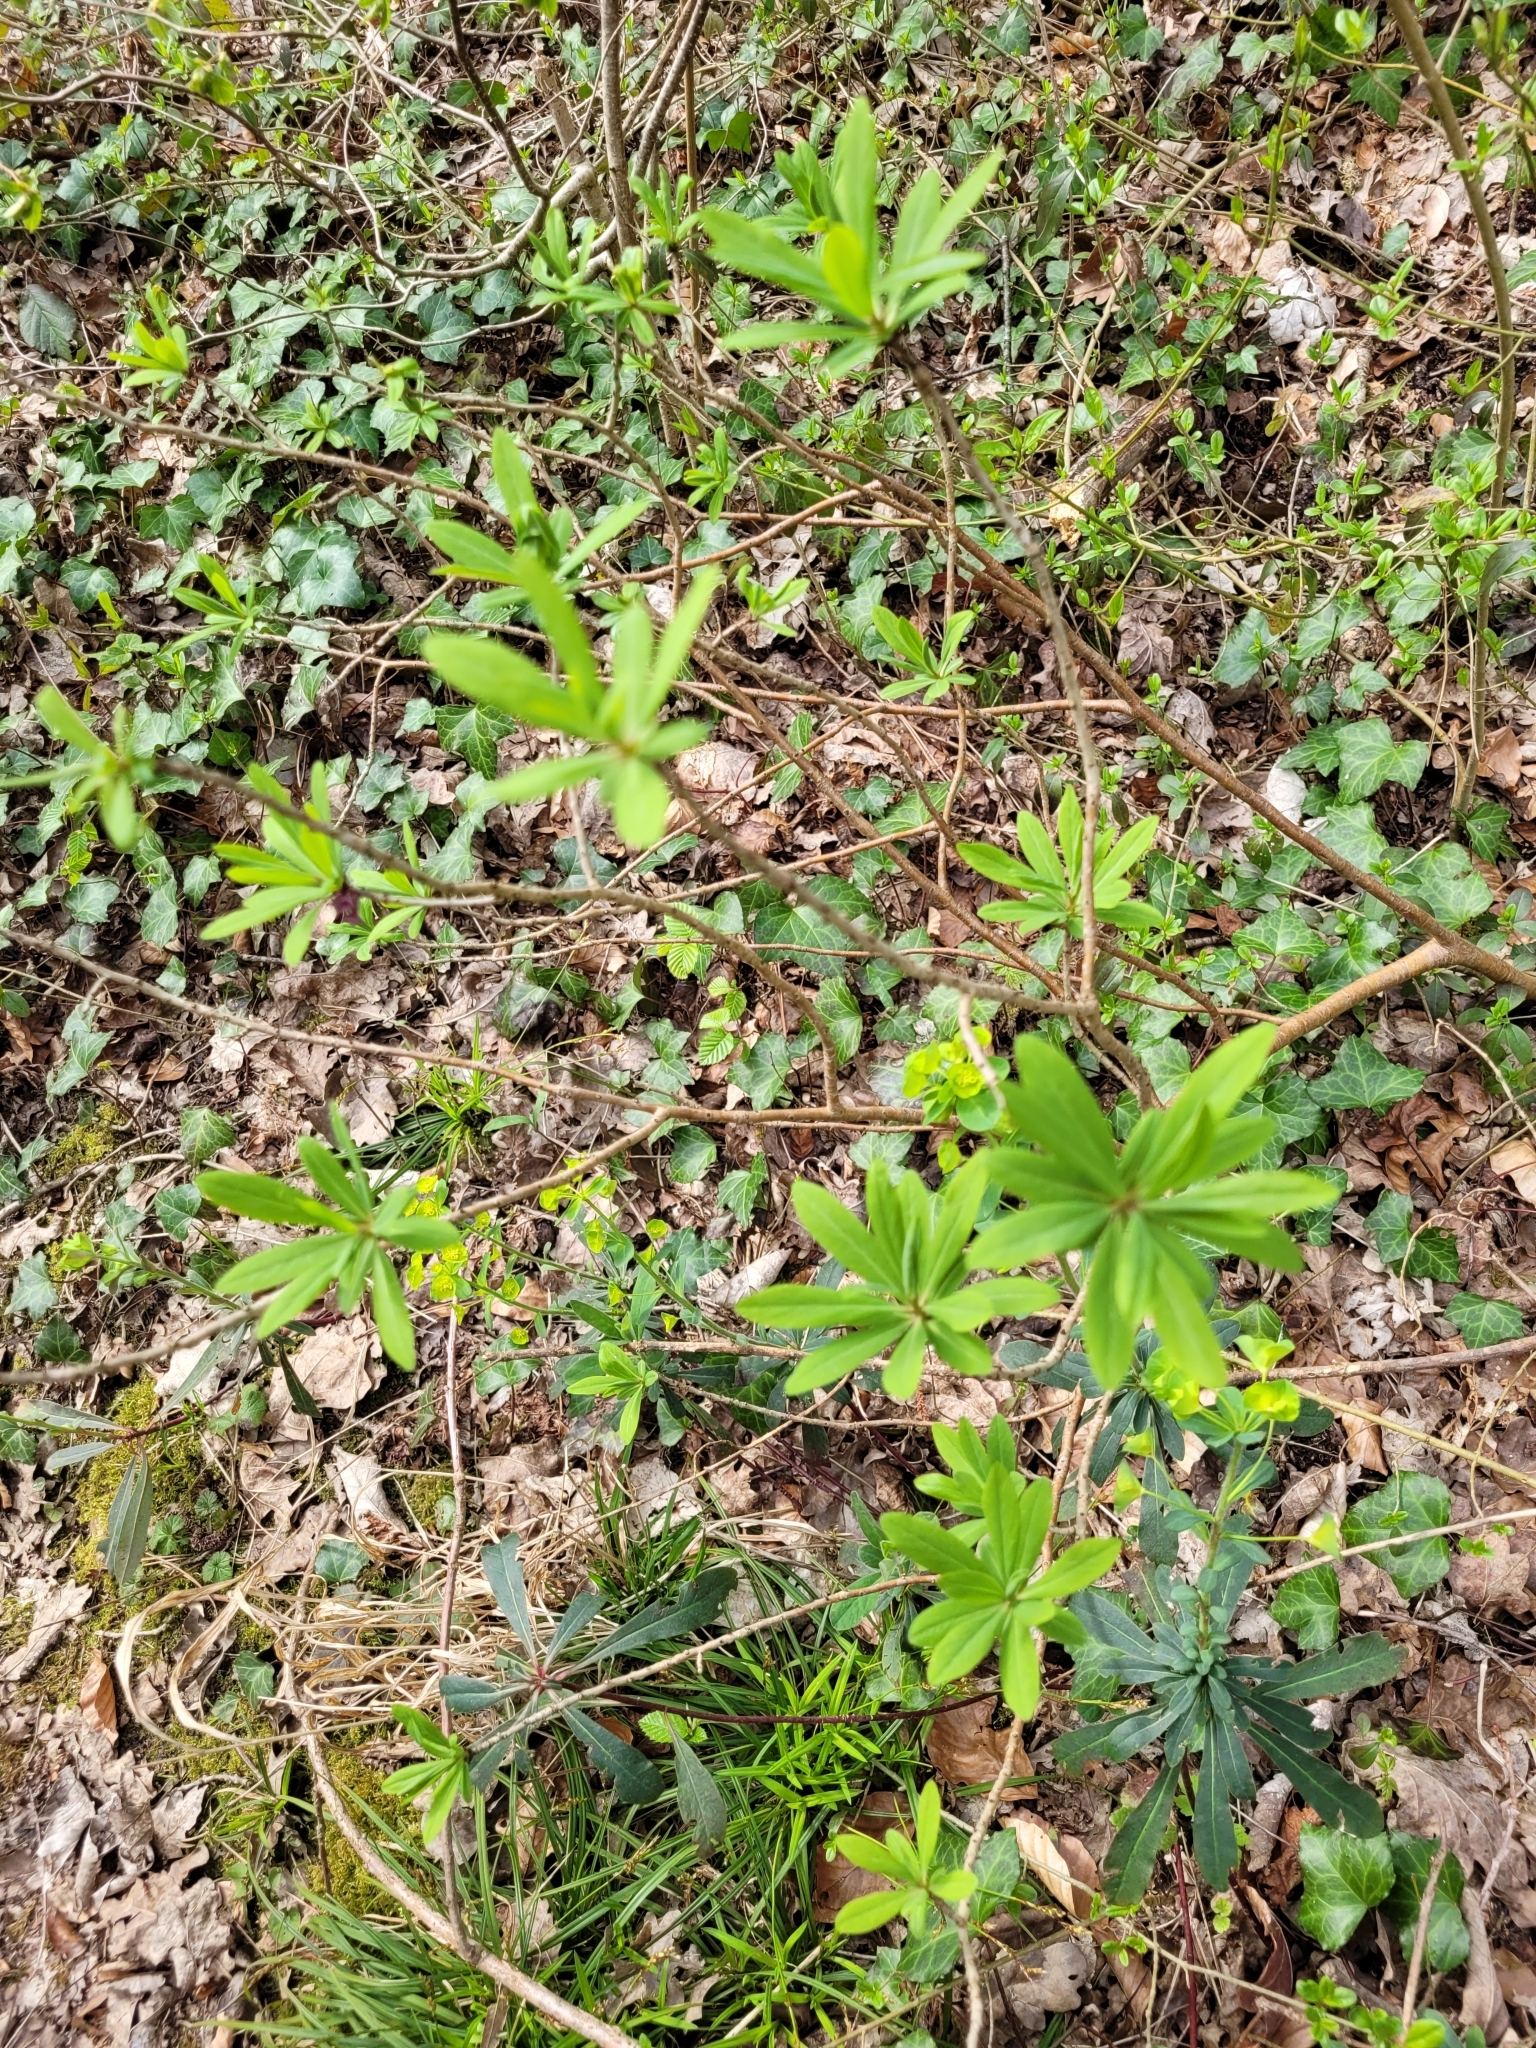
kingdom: Plantae
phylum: Tracheophyta
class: Magnoliopsida
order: Malvales
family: Thymelaeaceae
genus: Daphne
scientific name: Daphne mezereum
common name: Mezereon
